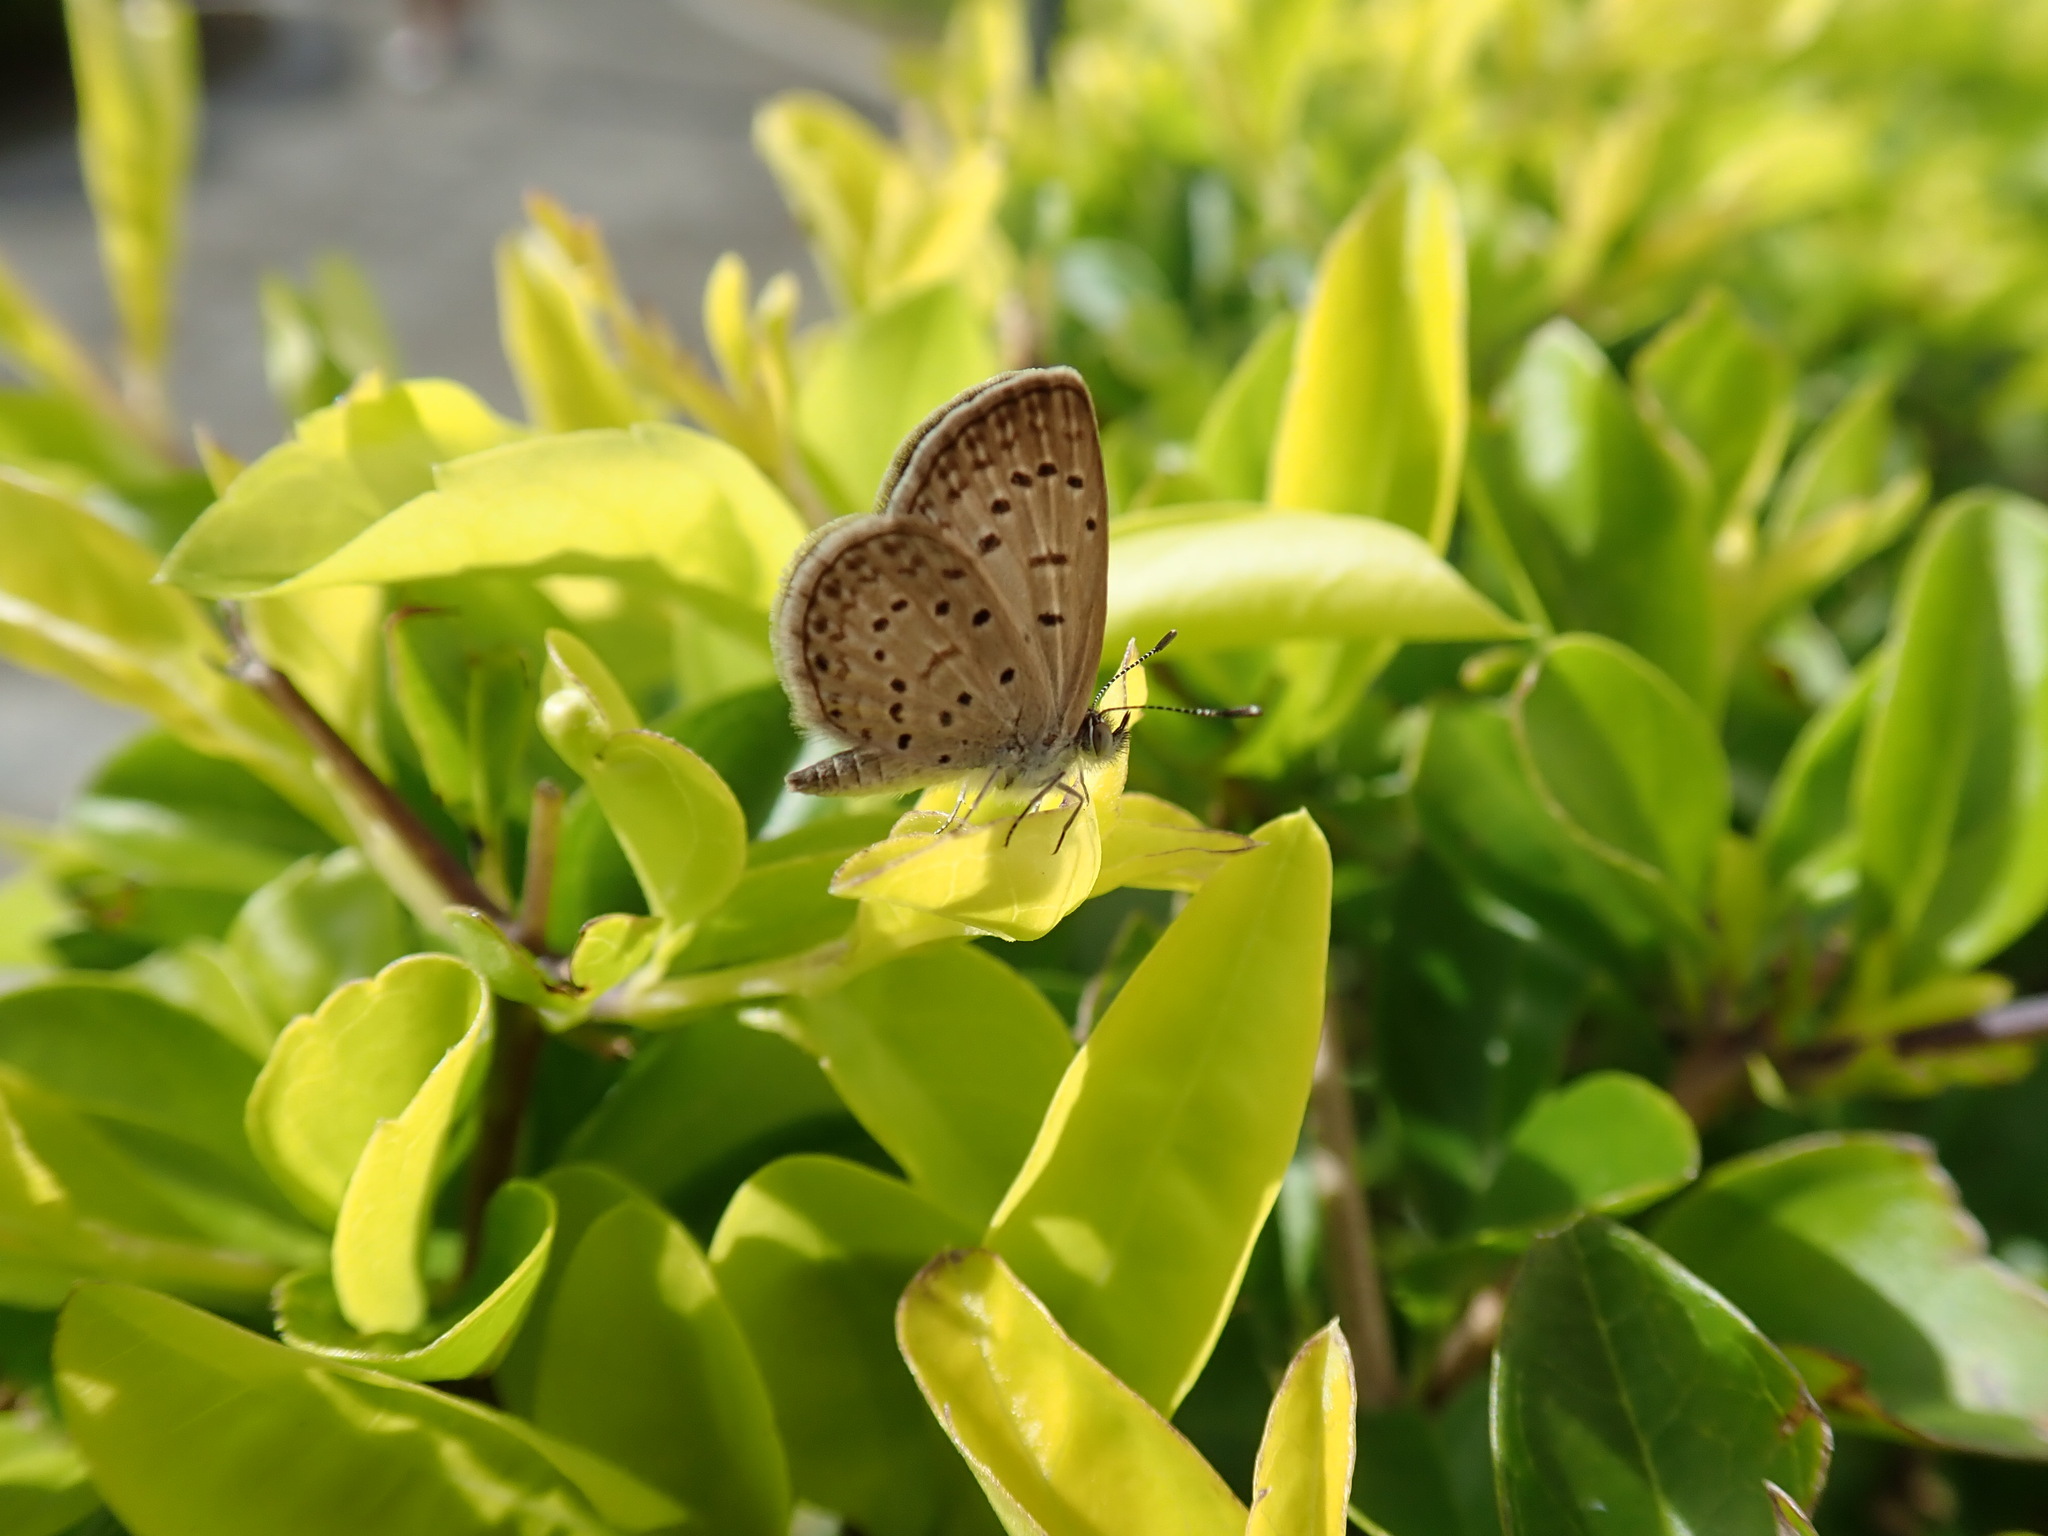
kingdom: Animalia
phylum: Arthropoda
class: Insecta
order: Lepidoptera
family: Lycaenidae
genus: Zizeeria
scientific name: Zizeeria knysna
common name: African grass blue
